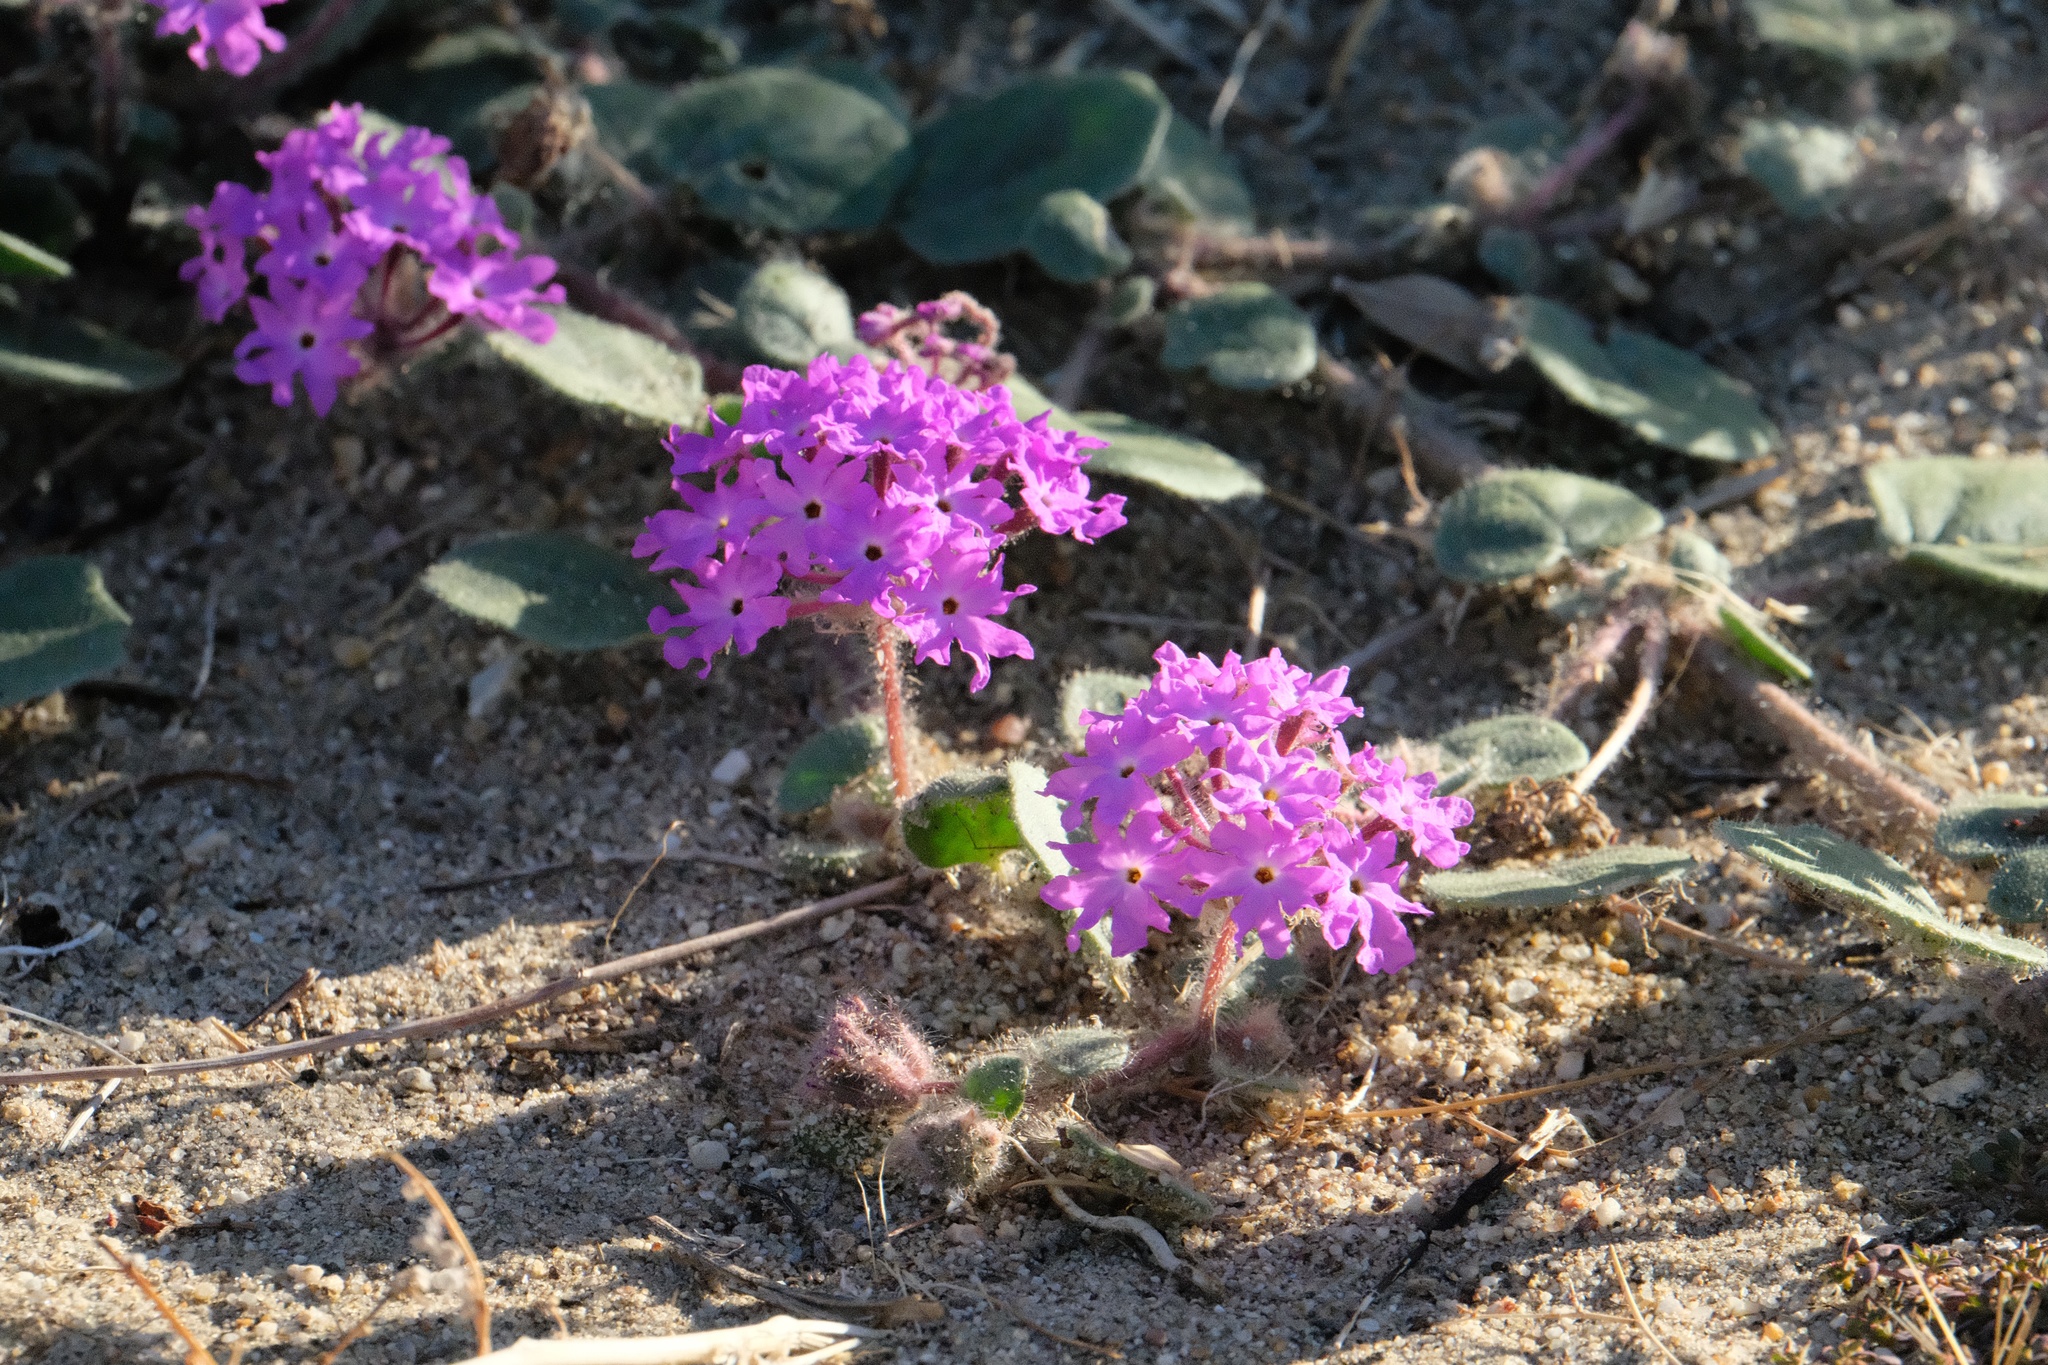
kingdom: Plantae
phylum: Tracheophyta
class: Magnoliopsida
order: Caryophyllales
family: Nyctaginaceae
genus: Abronia
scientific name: Abronia villosa
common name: Desert sand-verbena
